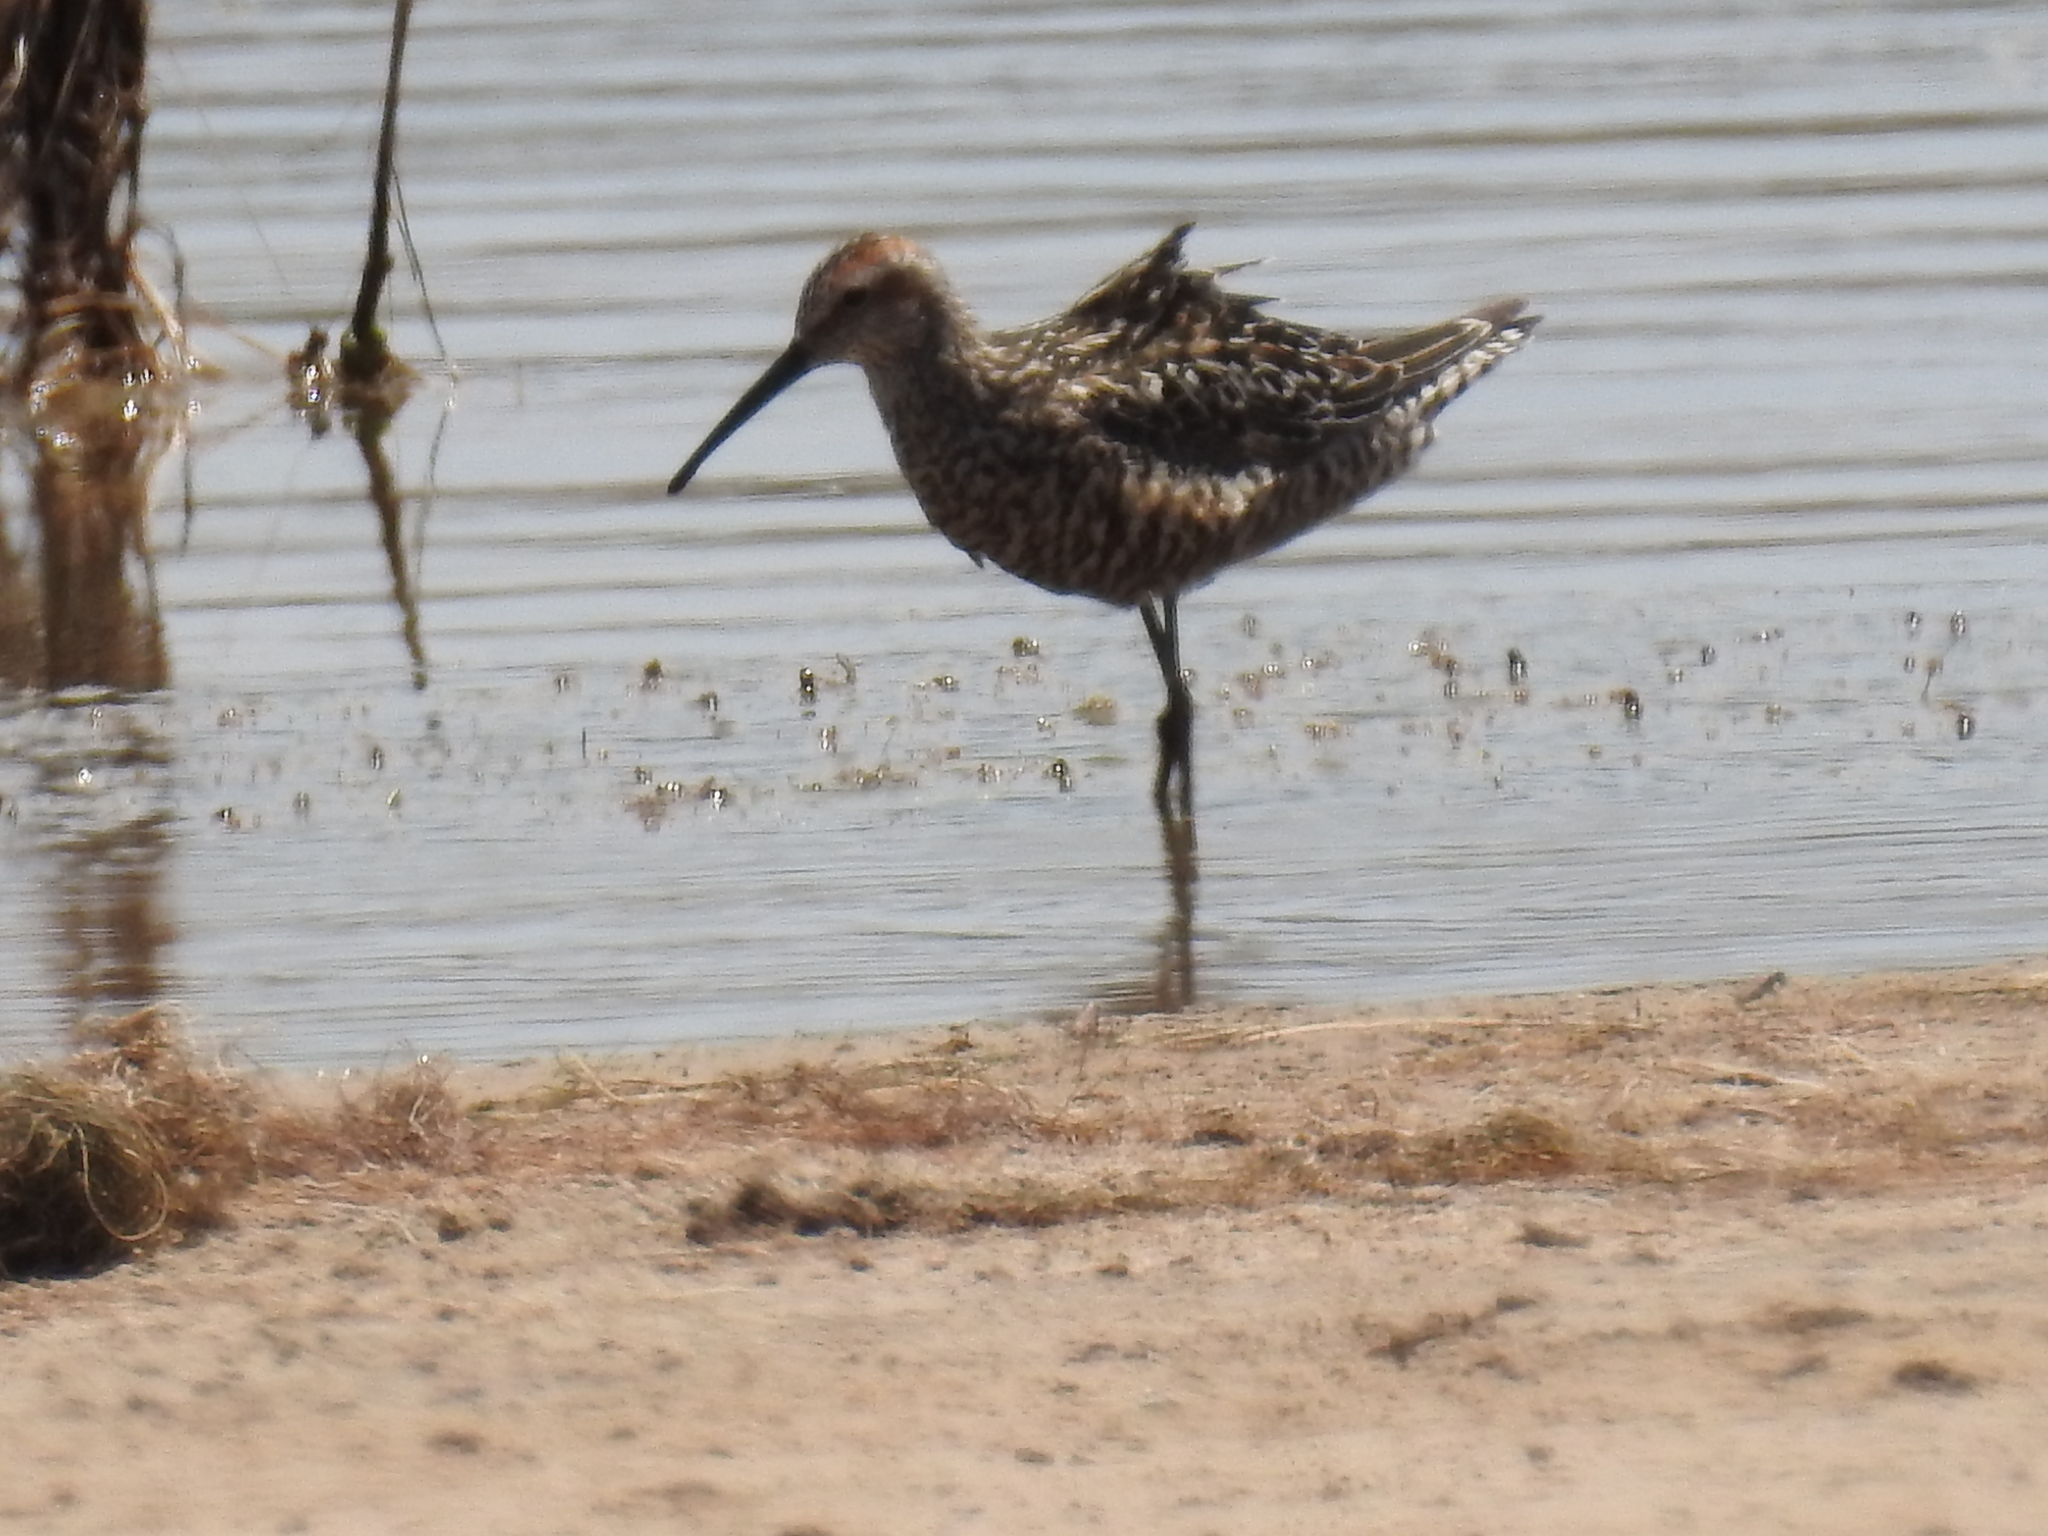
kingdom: Animalia
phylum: Chordata
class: Aves
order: Charadriiformes
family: Scolopacidae
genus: Calidris
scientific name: Calidris himantopus
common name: Stilt sandpiper
